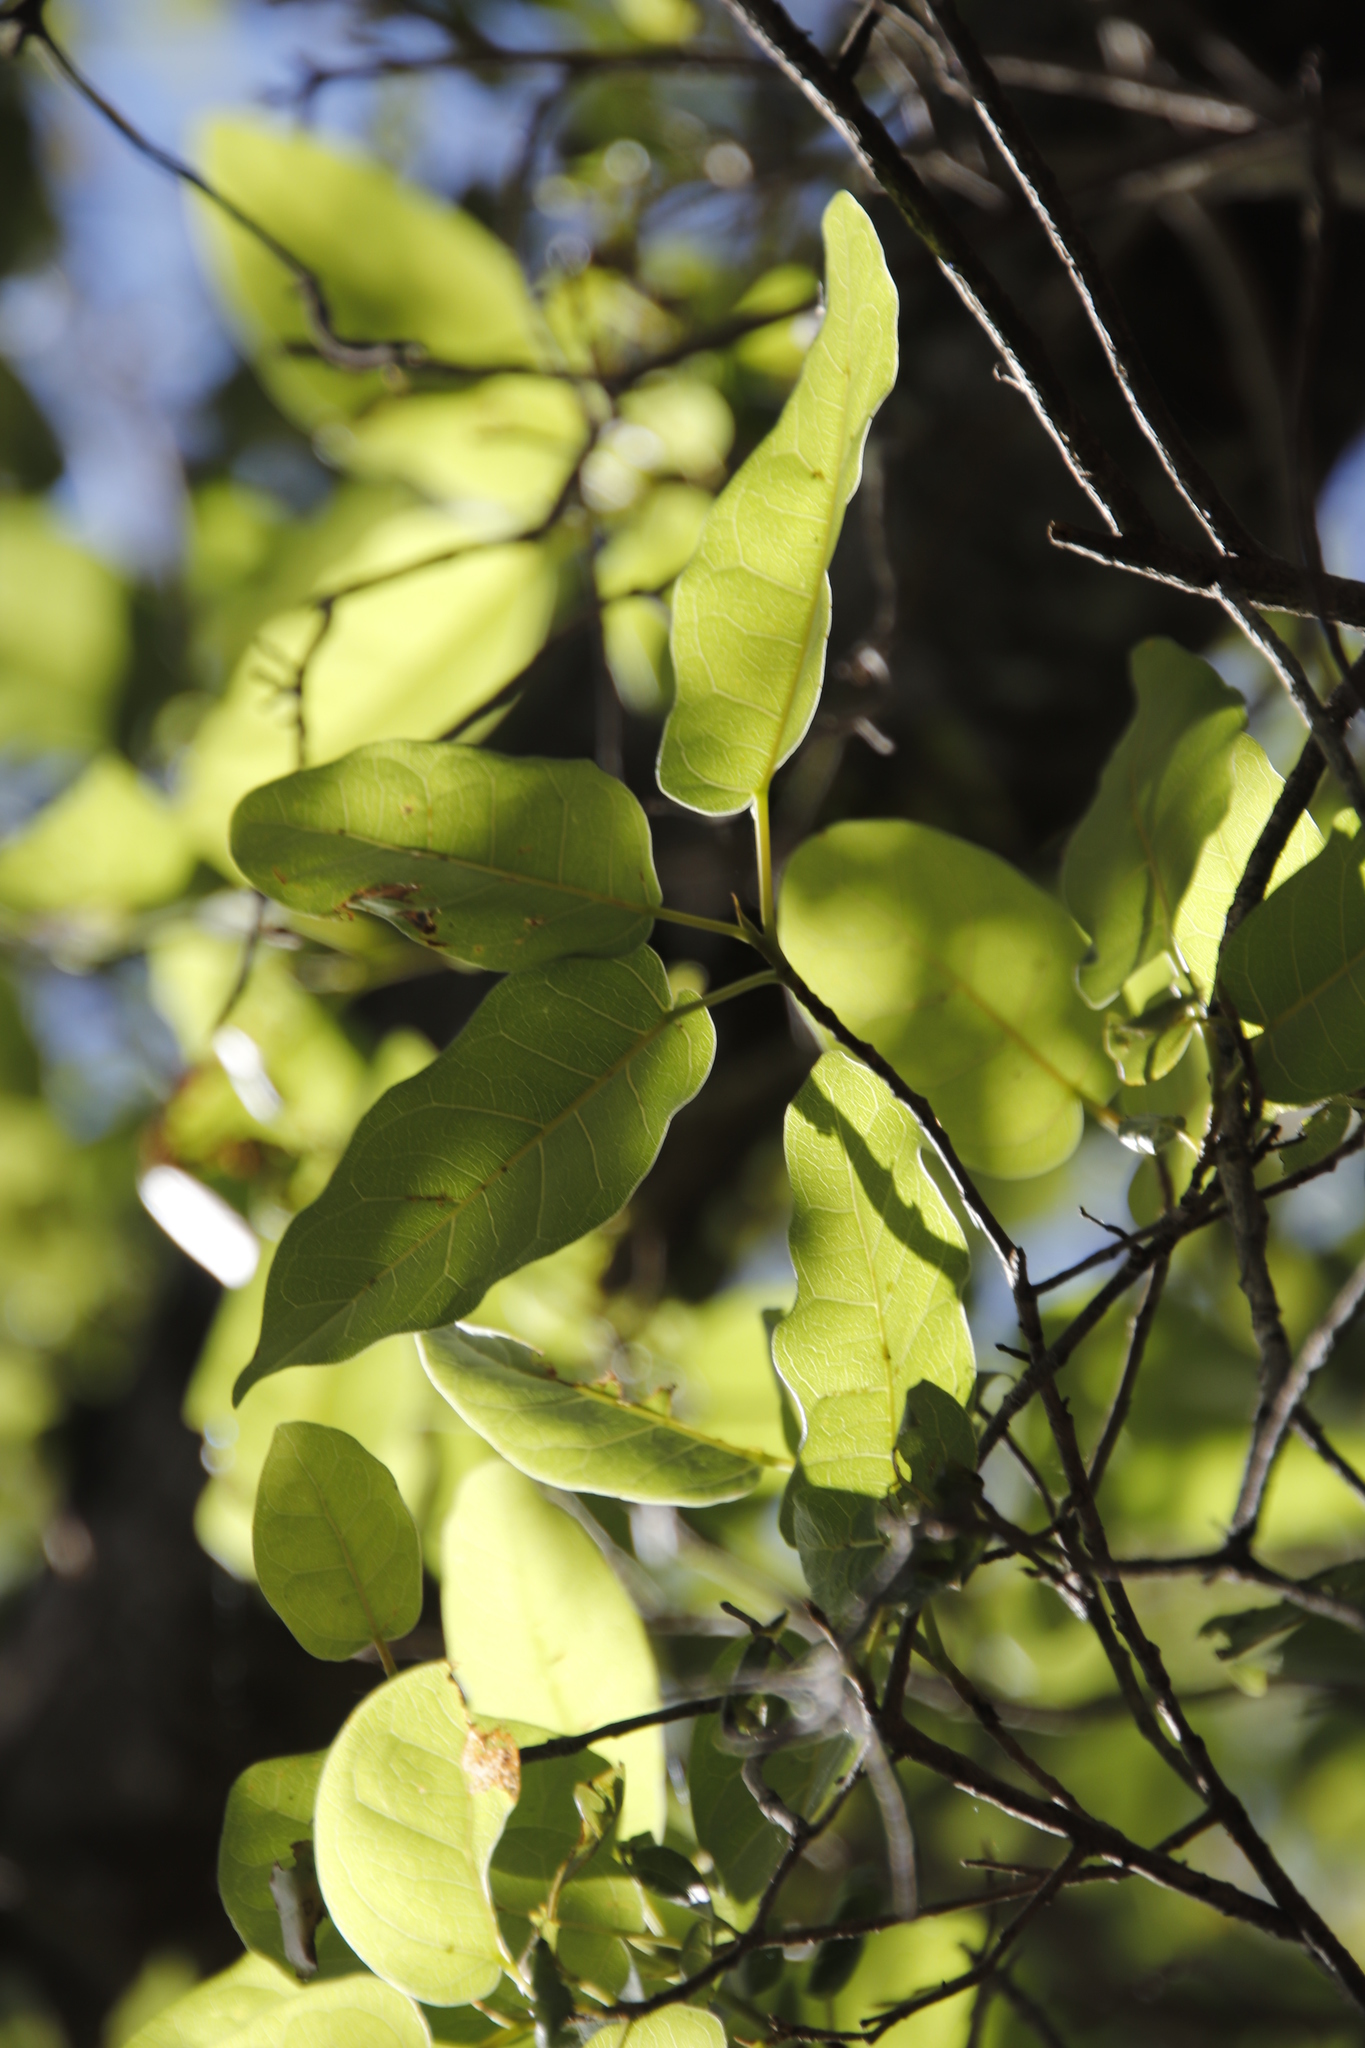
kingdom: Plantae
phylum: Tracheophyta
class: Magnoliopsida
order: Rosales
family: Moraceae
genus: Ficus
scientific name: Ficus ingens
